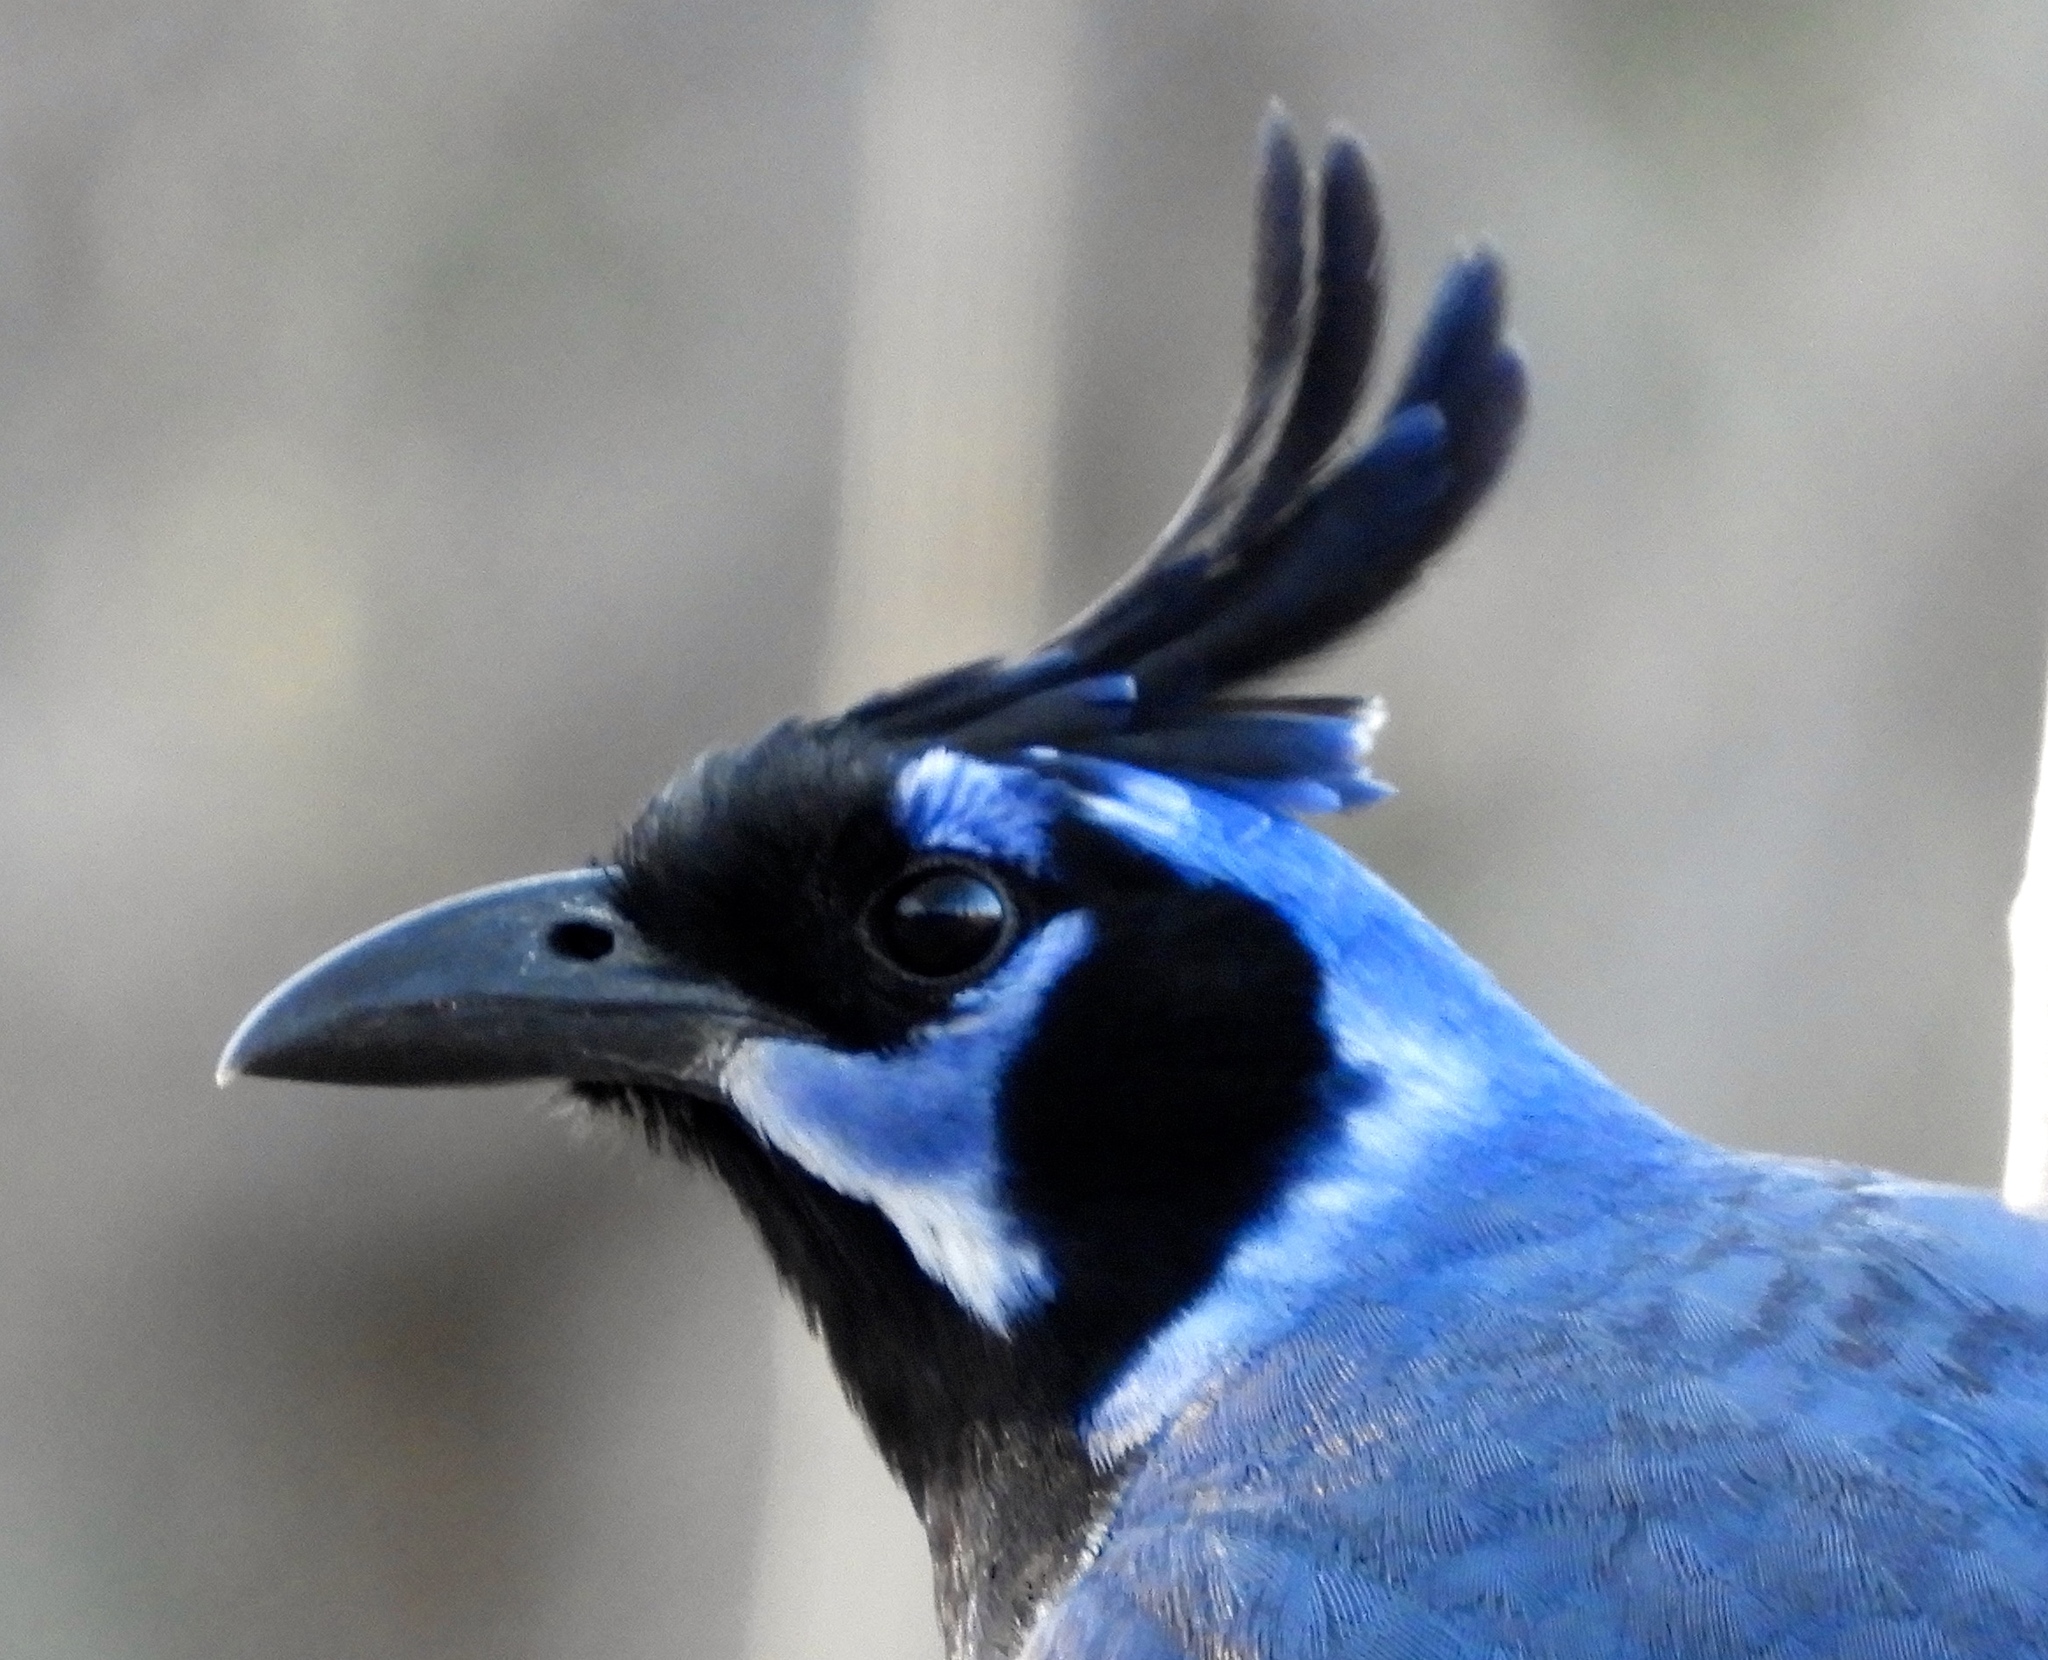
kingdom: Animalia
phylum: Chordata
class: Aves
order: Passeriformes
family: Corvidae
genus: Calocitta
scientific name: Calocitta colliei
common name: Black-throated magpie-jay
